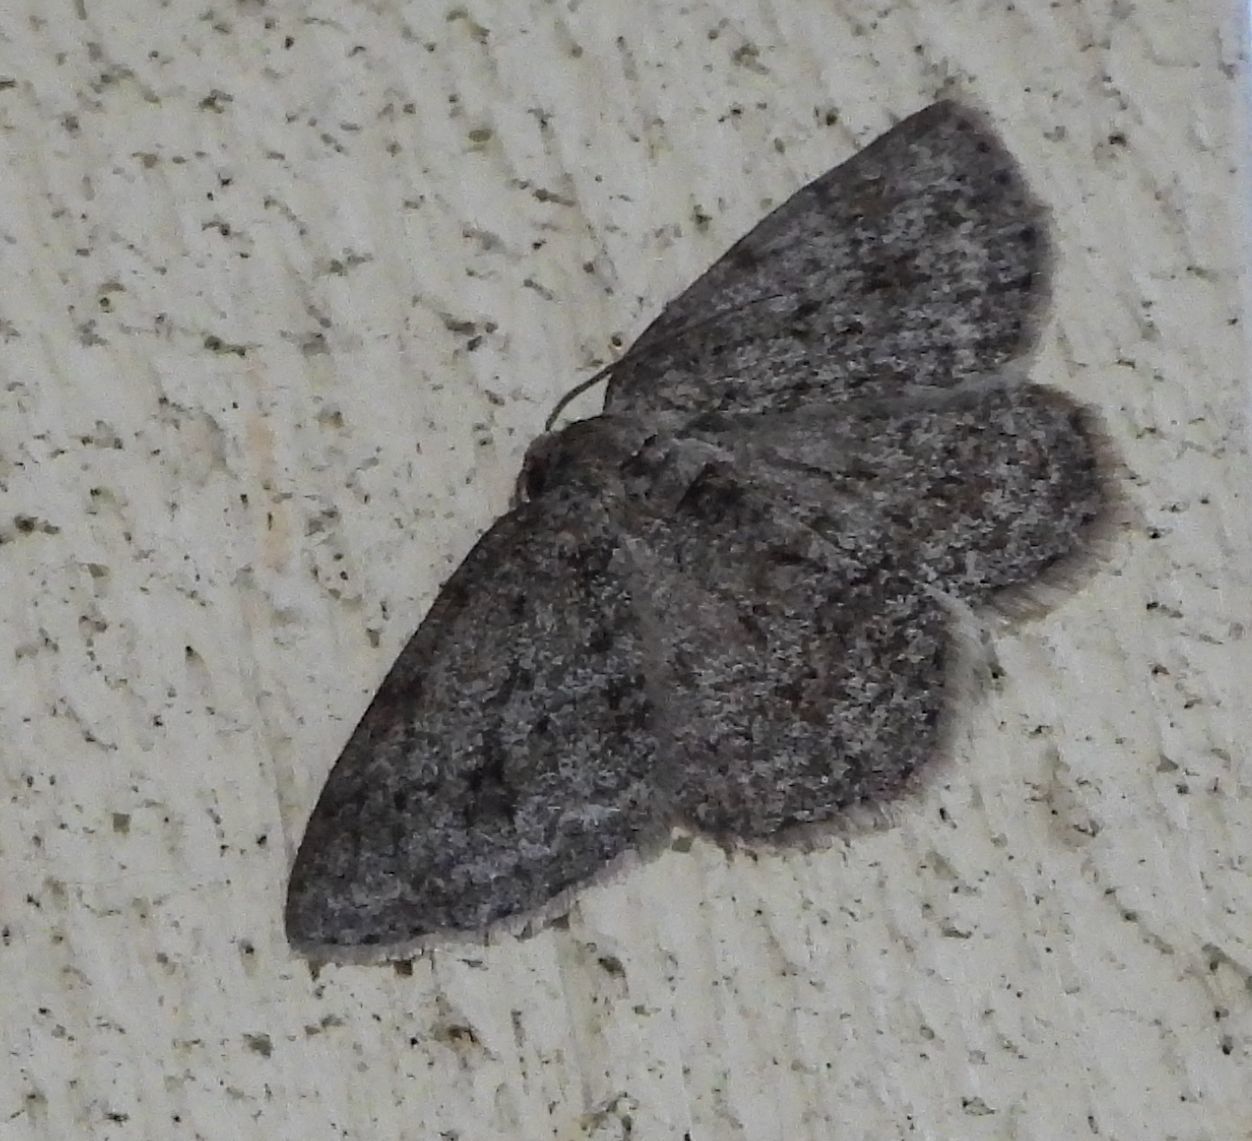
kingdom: Animalia
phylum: Arthropoda
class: Insecta
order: Lepidoptera
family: Geometridae
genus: Ectropis
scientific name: Ectropis crepuscularia
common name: Engrailed
